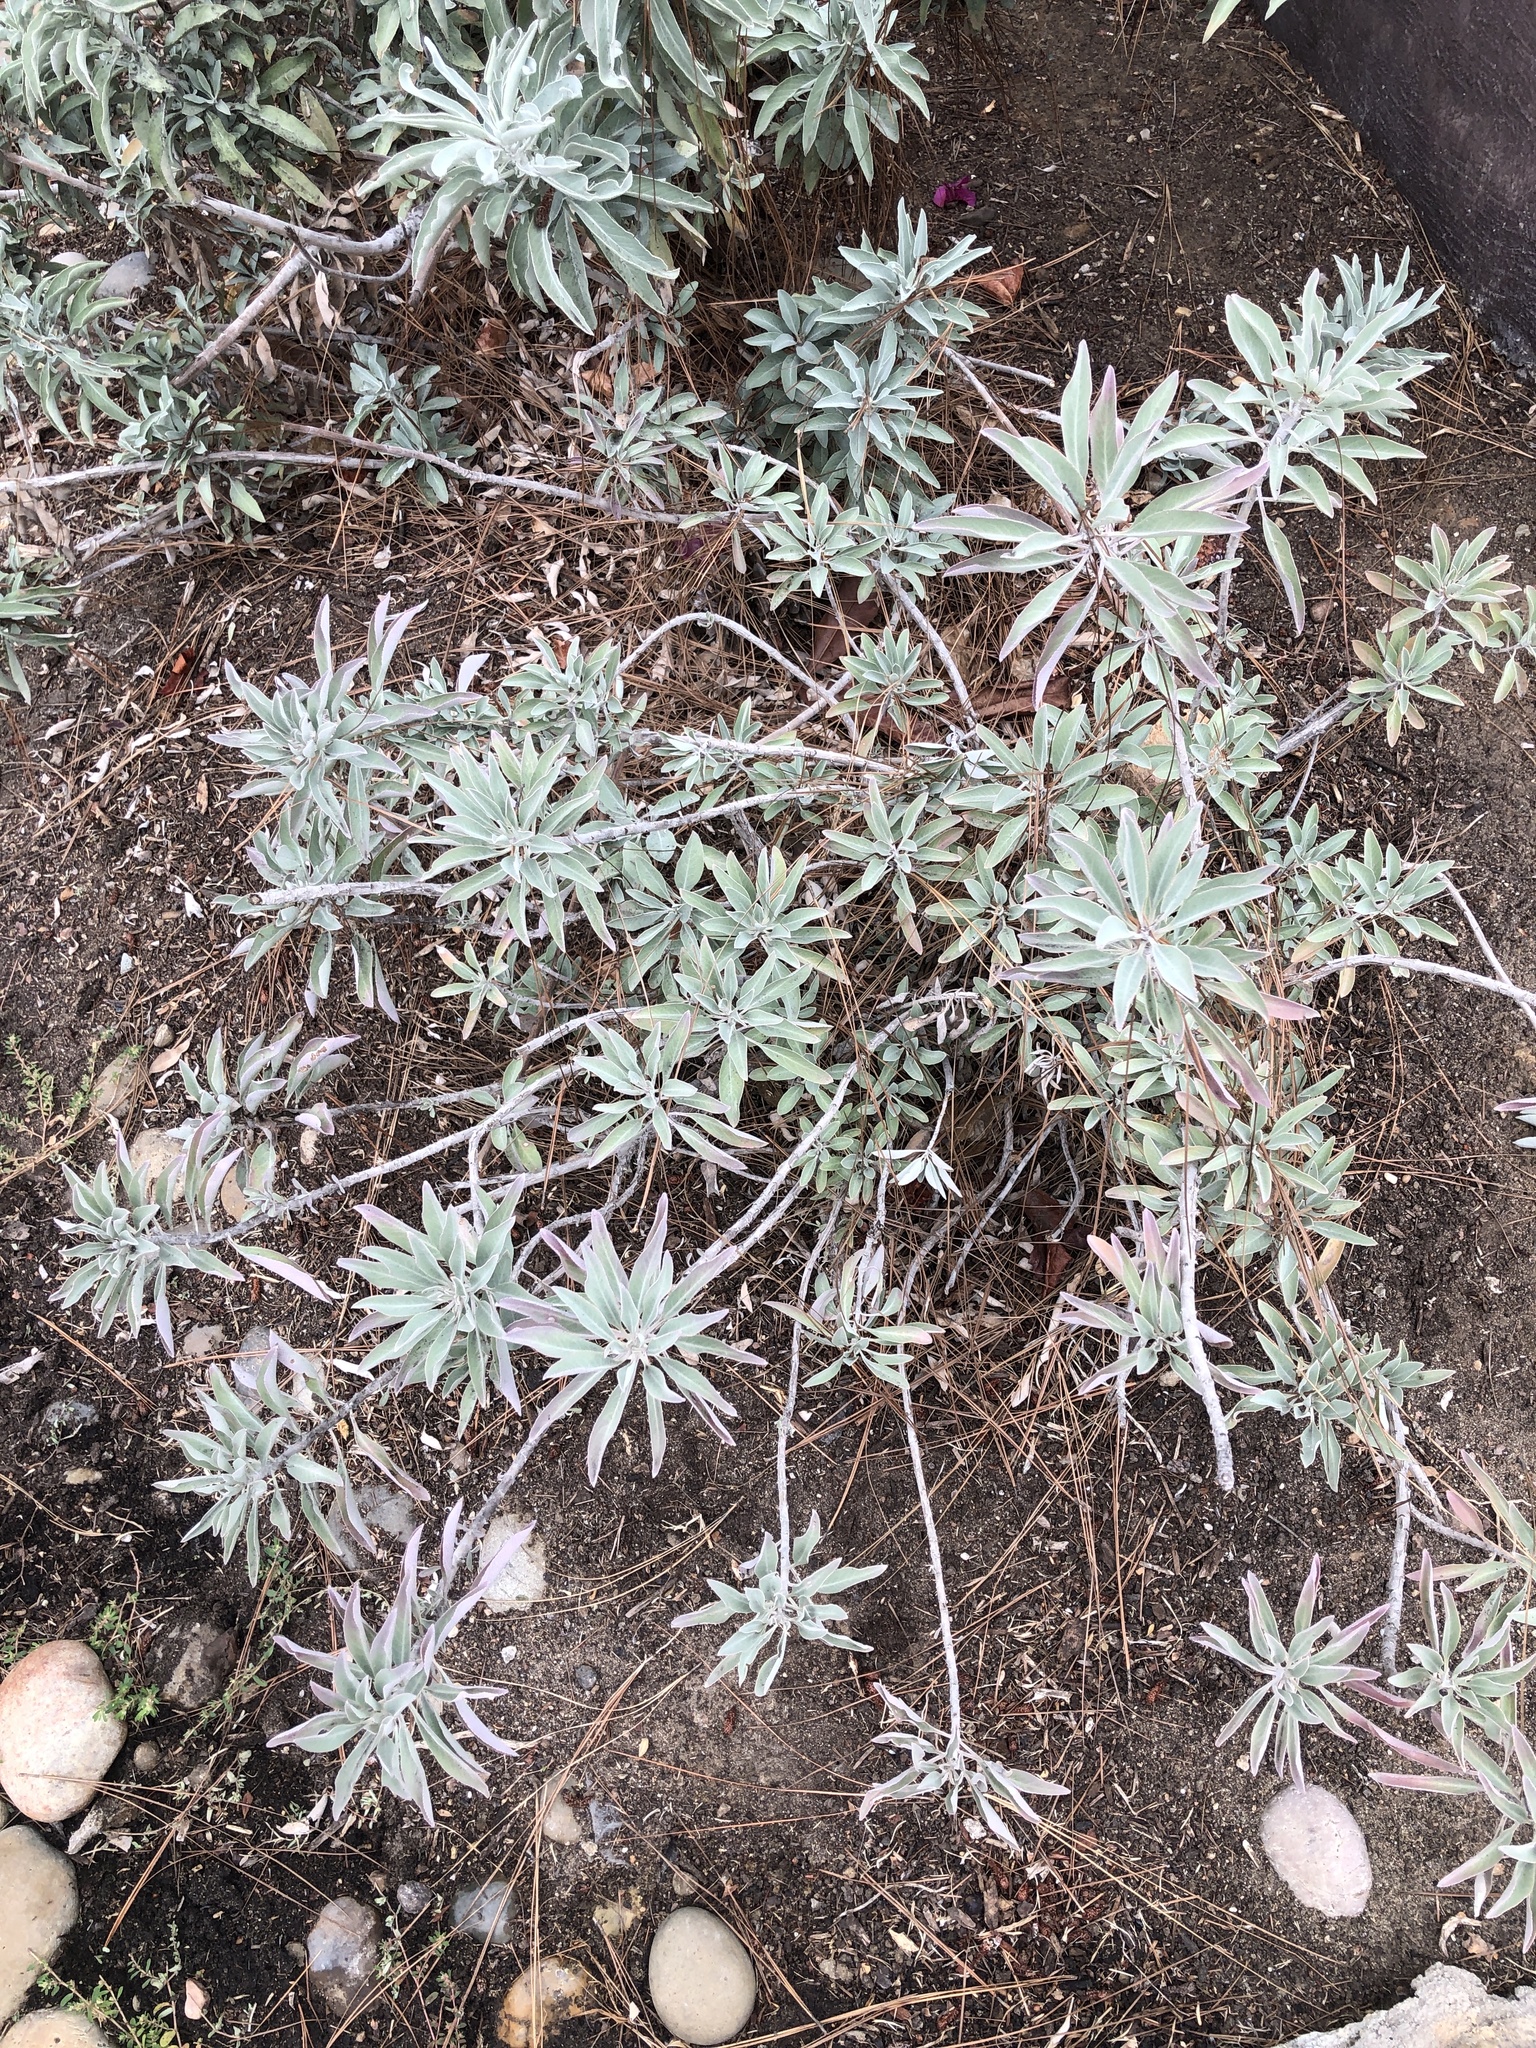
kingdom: Plantae
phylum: Tracheophyta
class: Magnoliopsida
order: Lamiales
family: Lamiaceae
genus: Salvia
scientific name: Salvia apiana
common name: White sage
